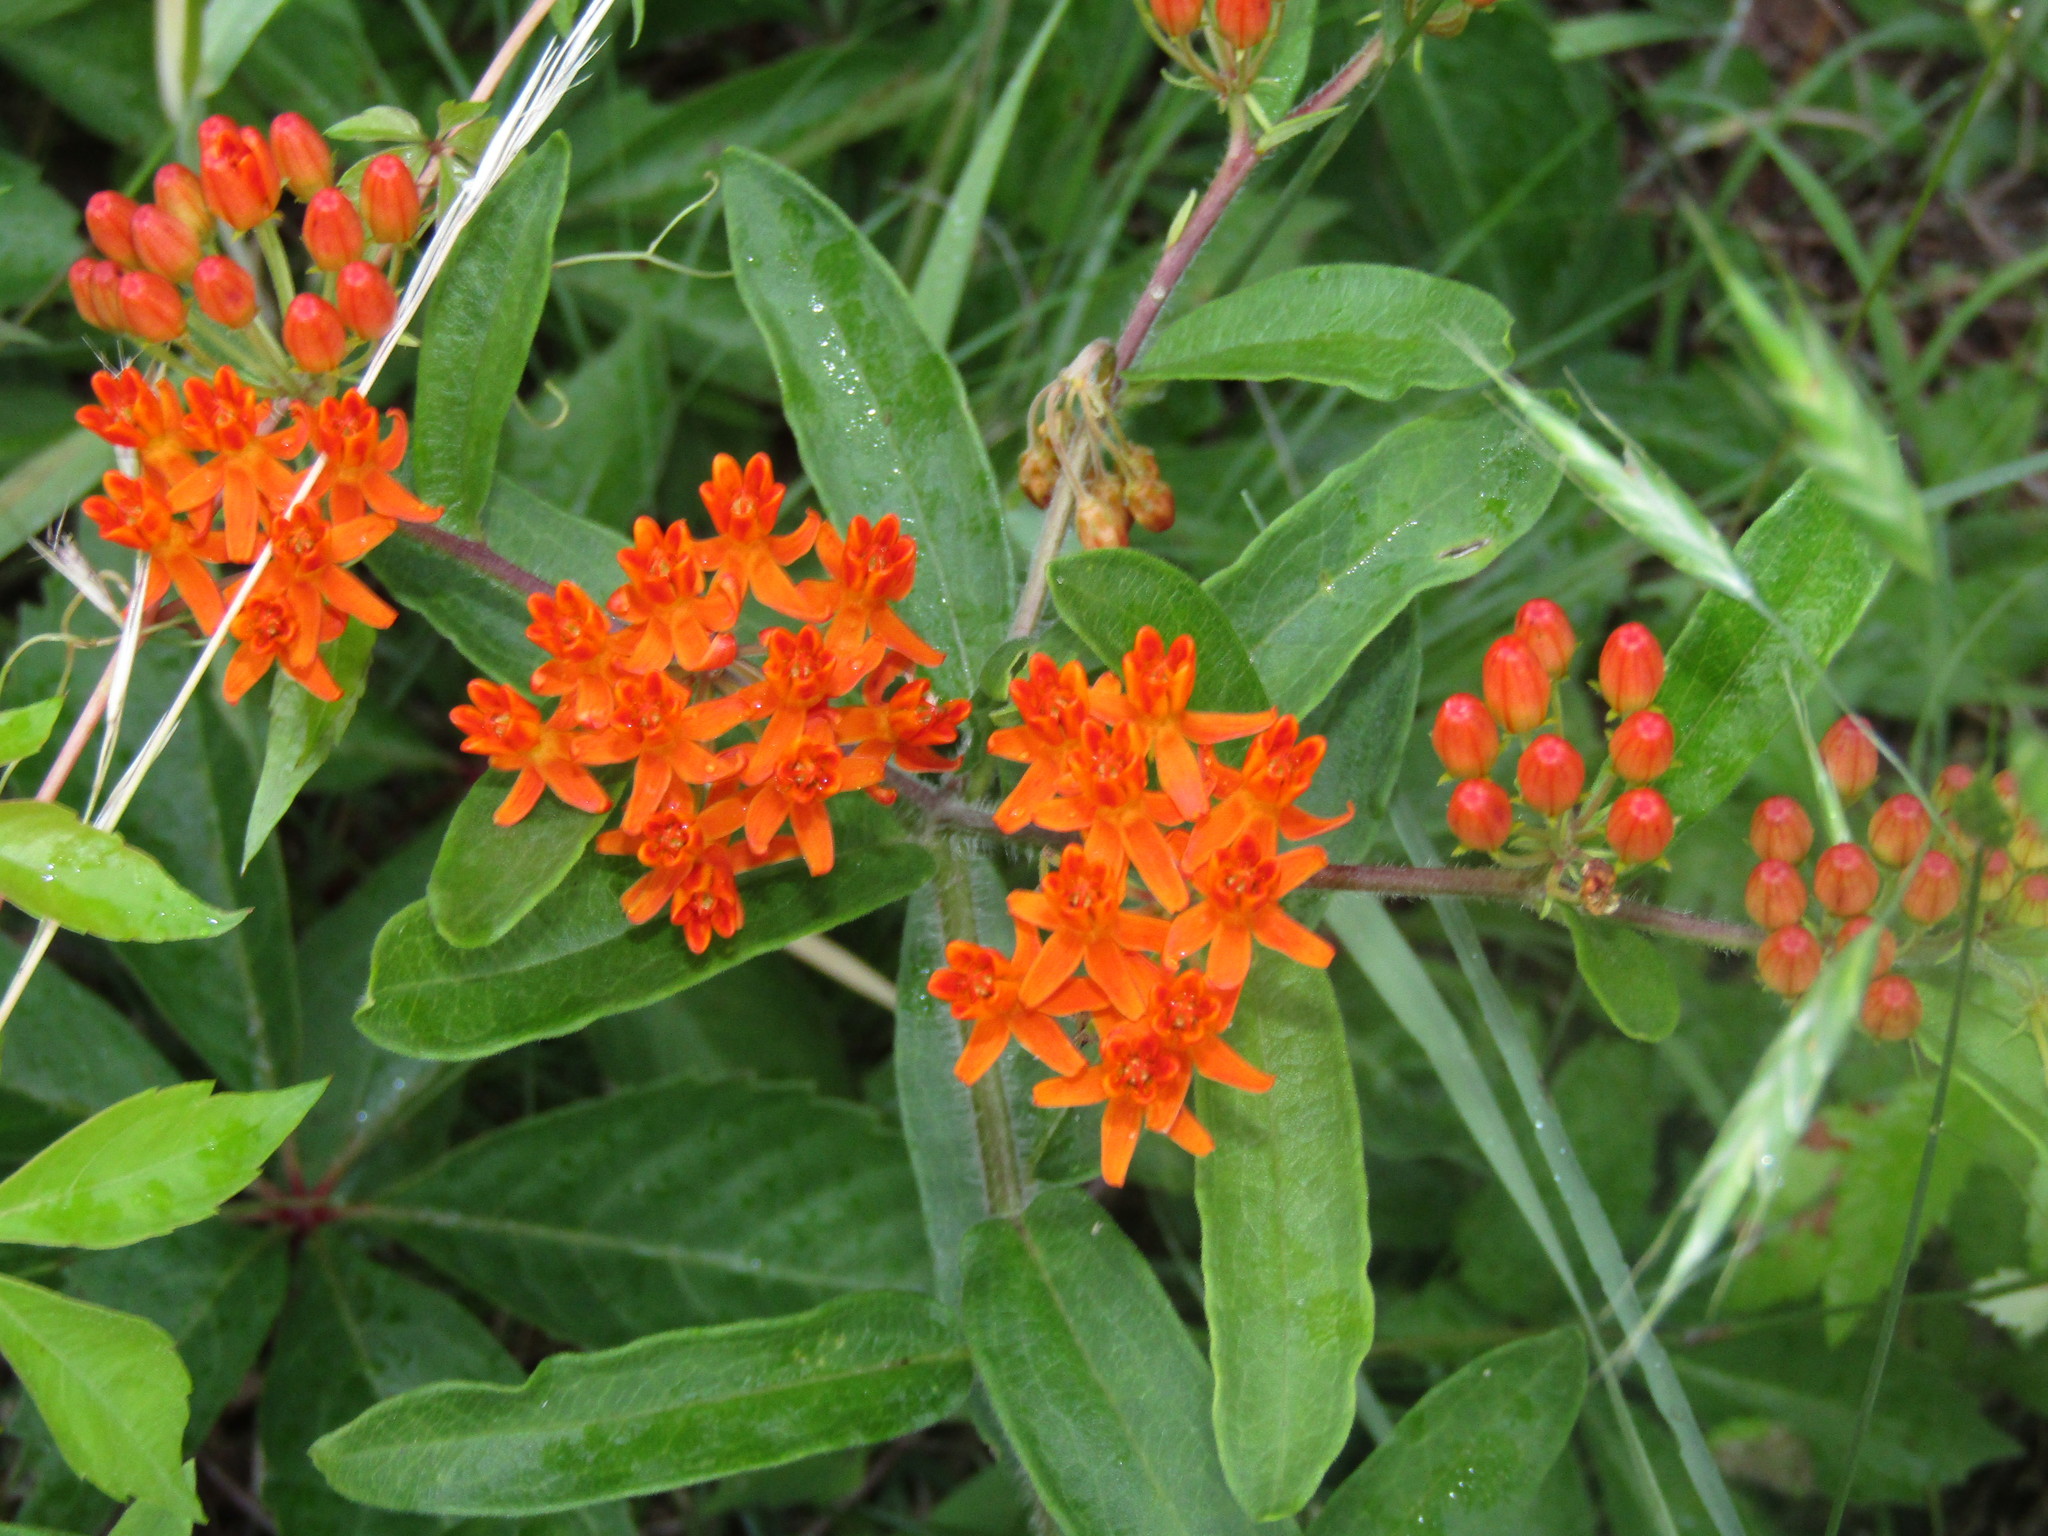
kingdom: Plantae
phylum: Tracheophyta
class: Magnoliopsida
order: Gentianales
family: Apocynaceae
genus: Asclepias
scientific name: Asclepias tuberosa
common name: Butterfly milkweed
